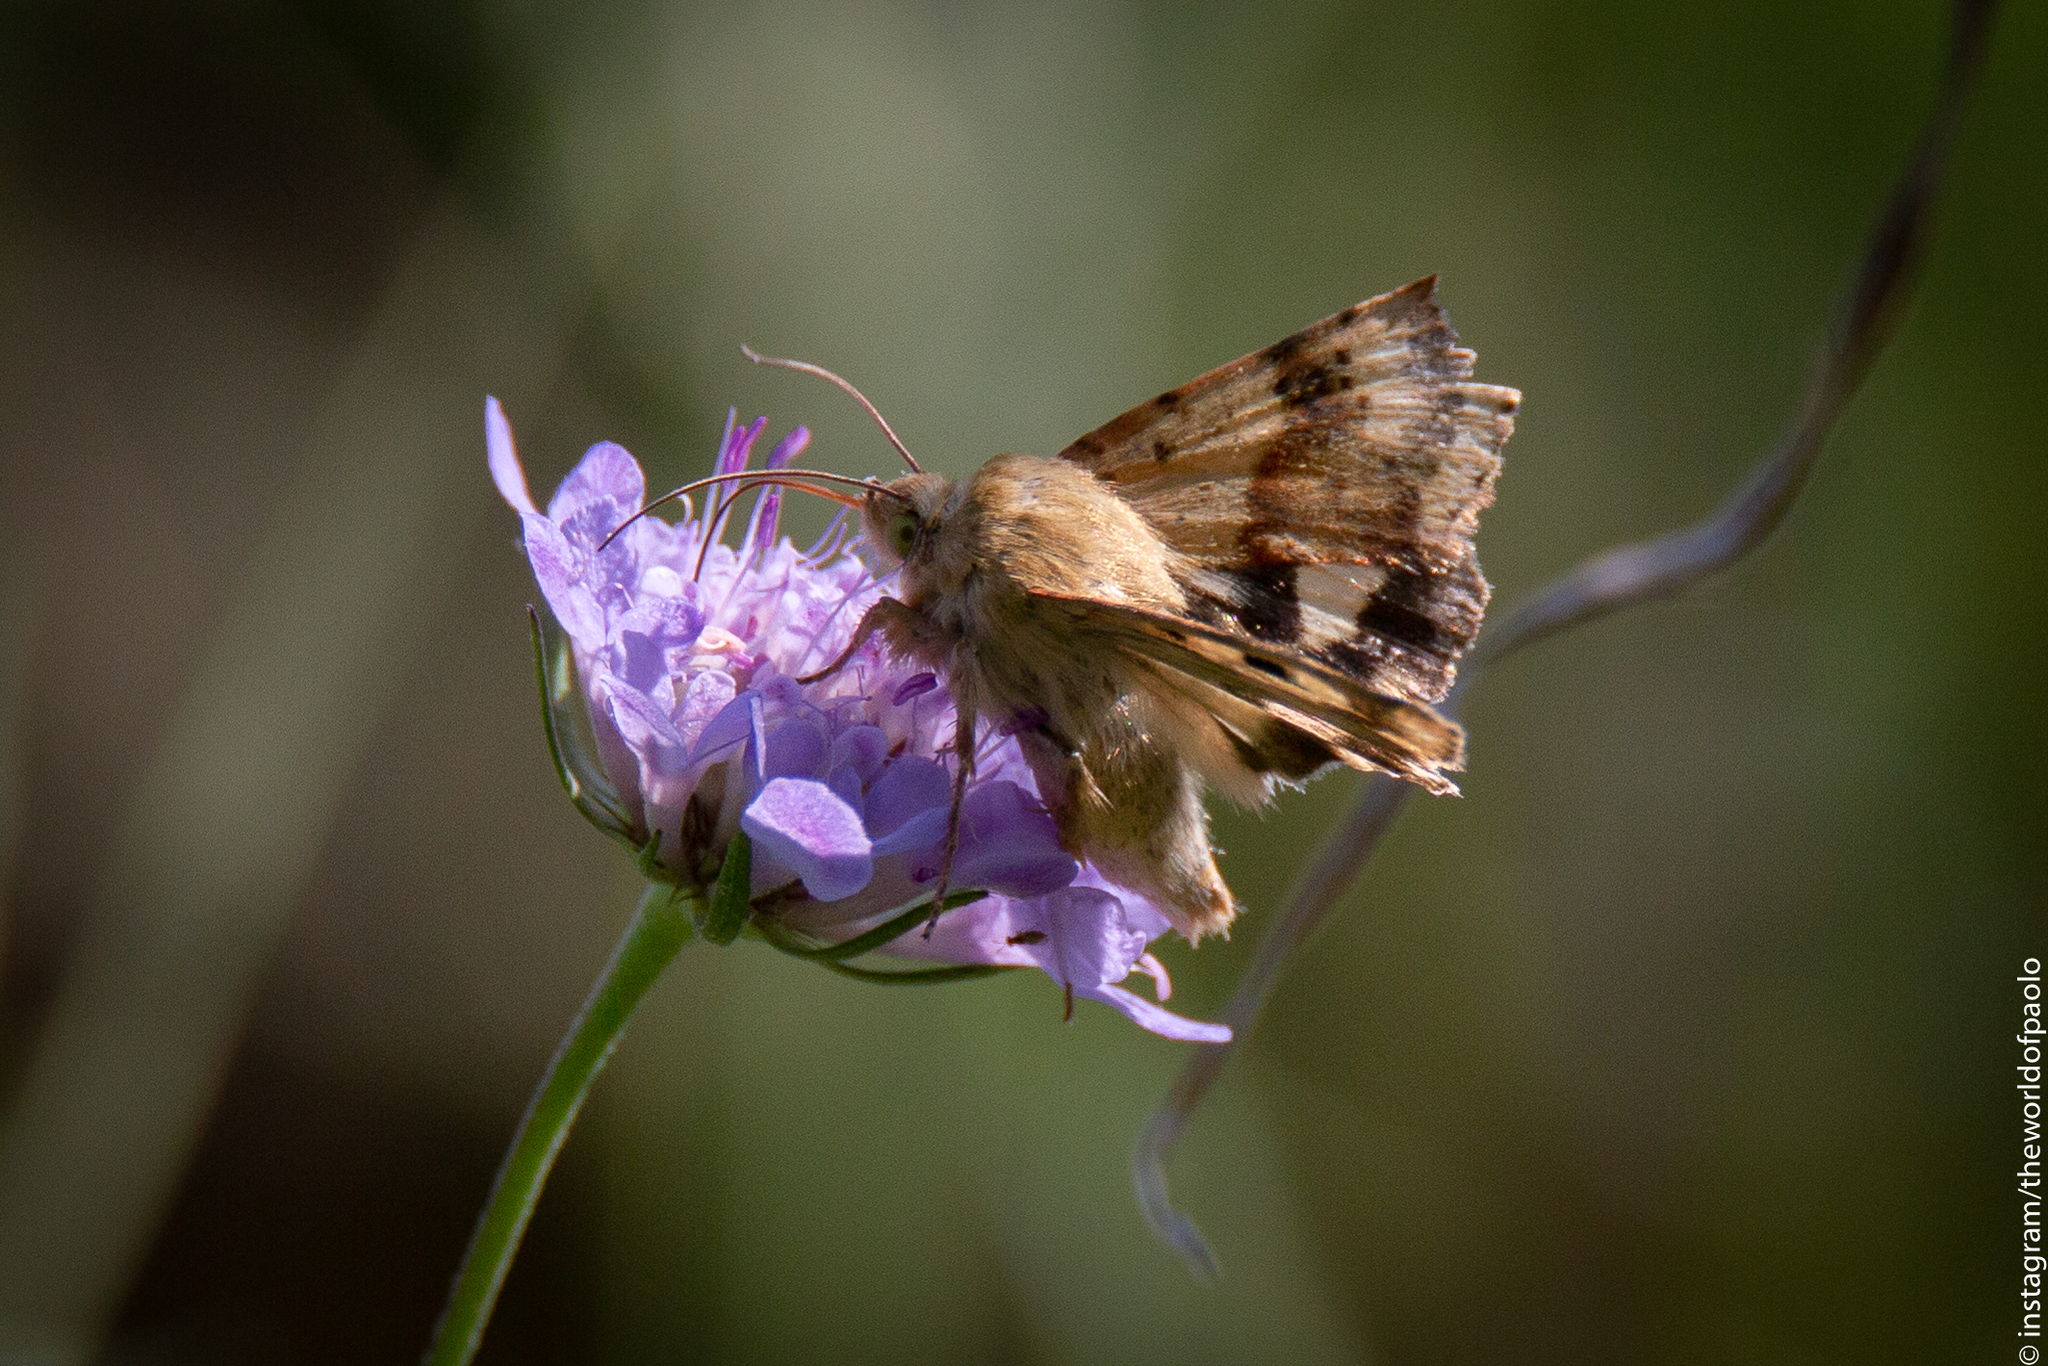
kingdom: Animalia
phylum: Arthropoda
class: Insecta
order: Lepidoptera
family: Noctuidae
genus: Heliothis
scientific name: Heliothis viriplaca
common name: Marbled clover
